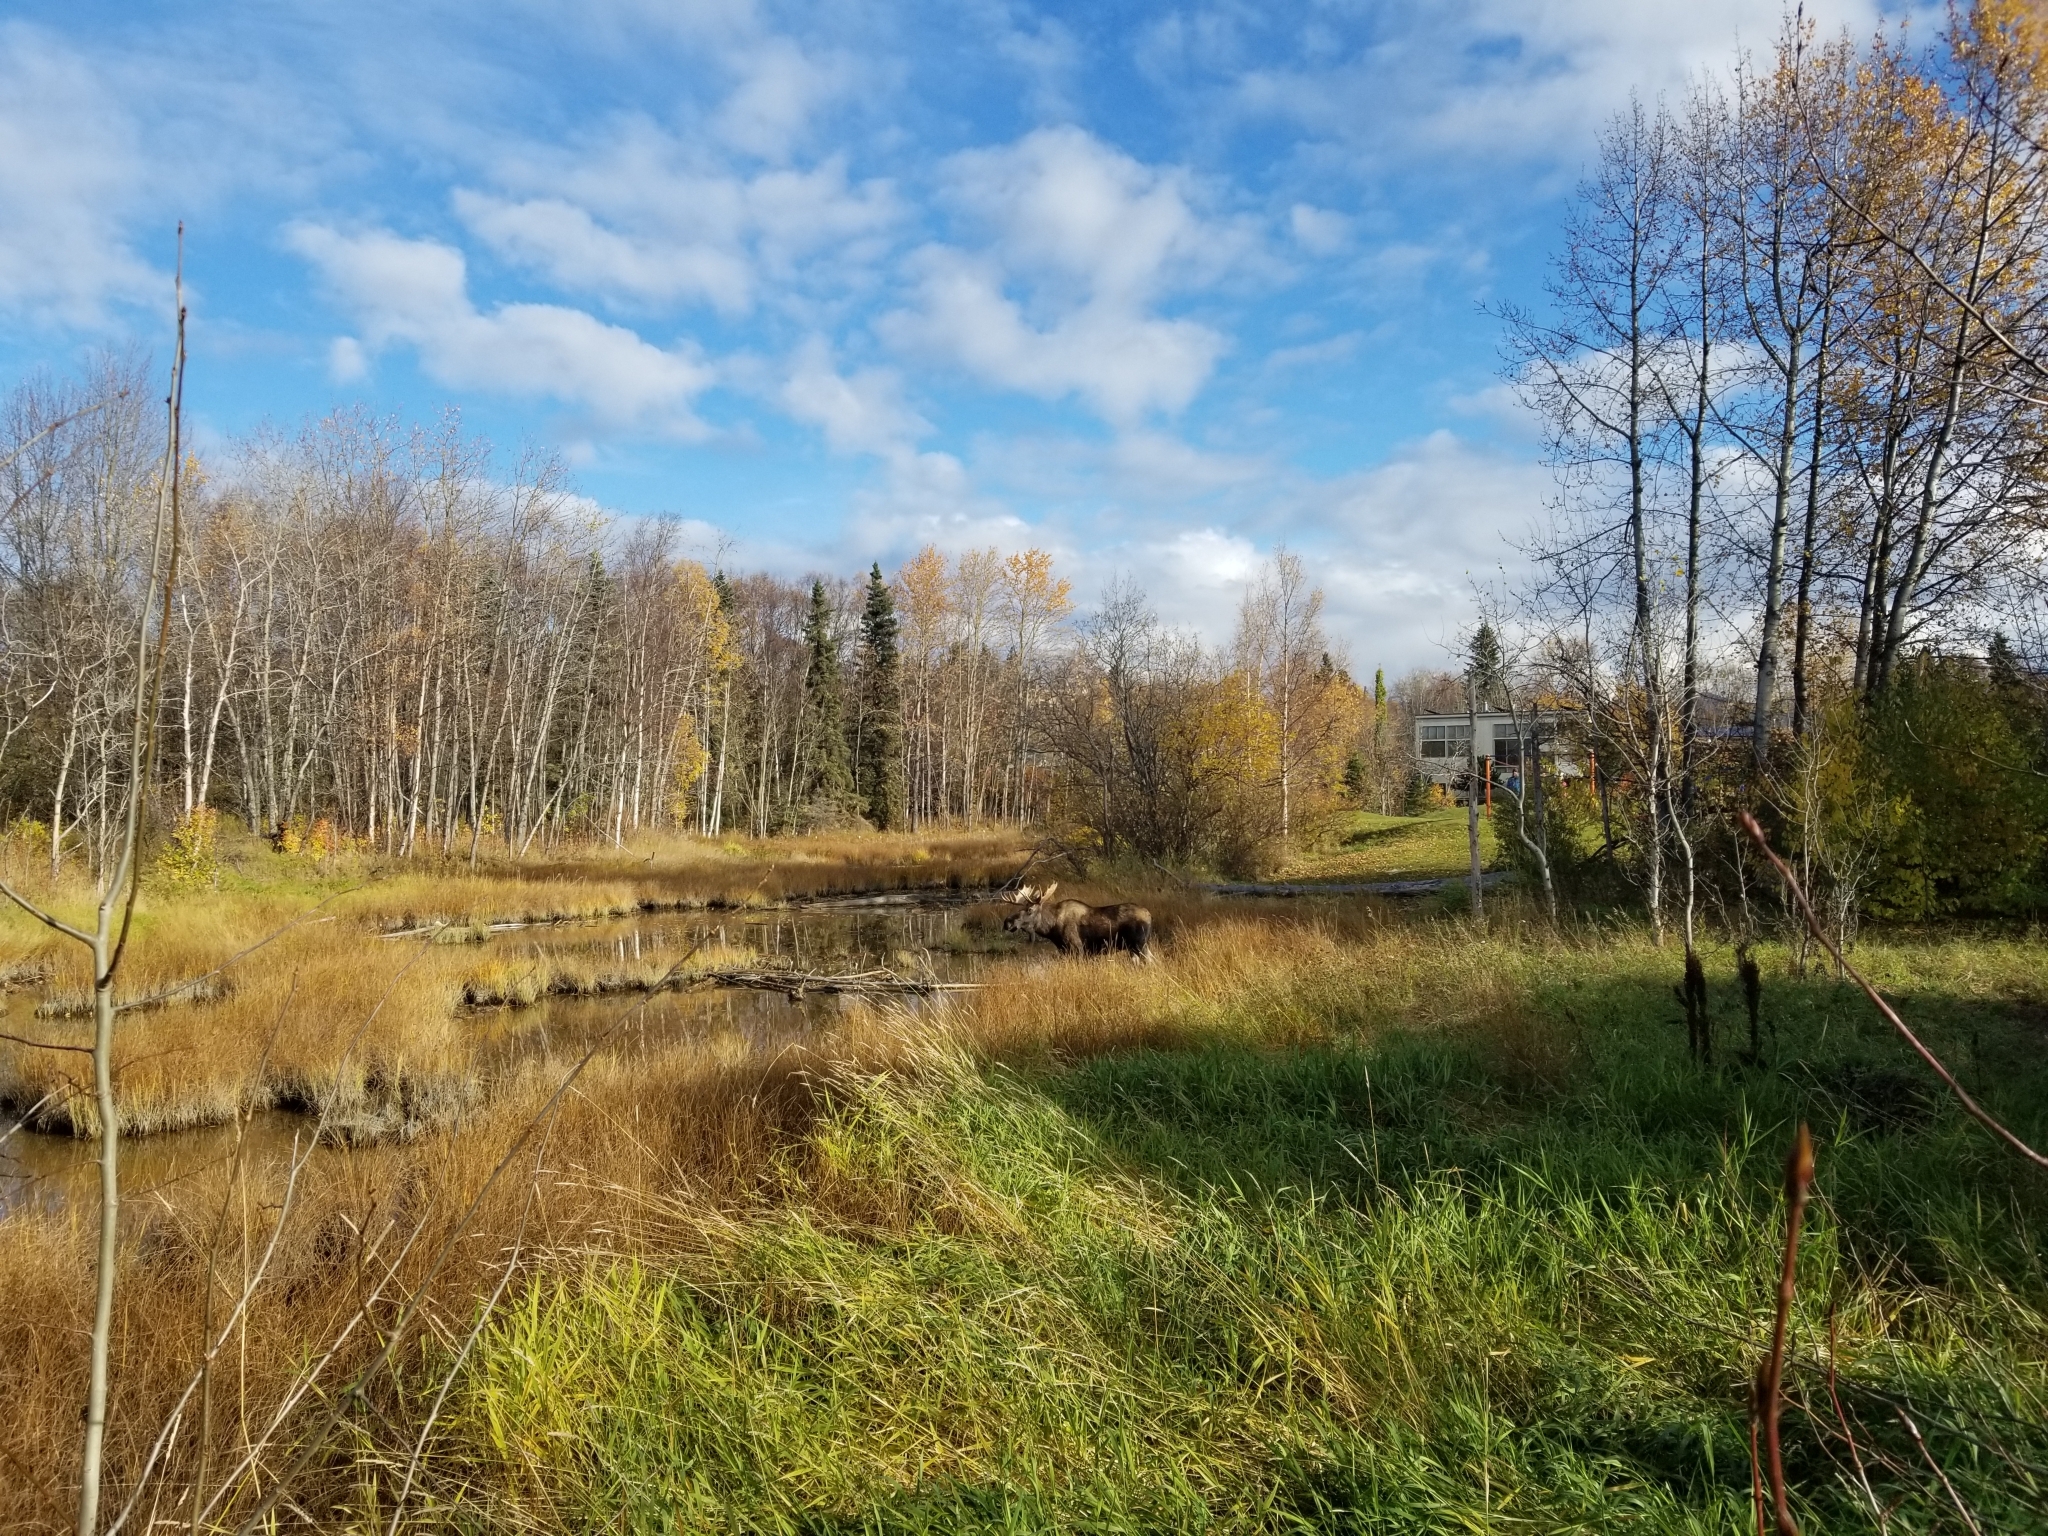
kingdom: Animalia
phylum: Chordata
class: Mammalia
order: Artiodactyla
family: Cervidae
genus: Alces
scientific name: Alces alces
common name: Moose
